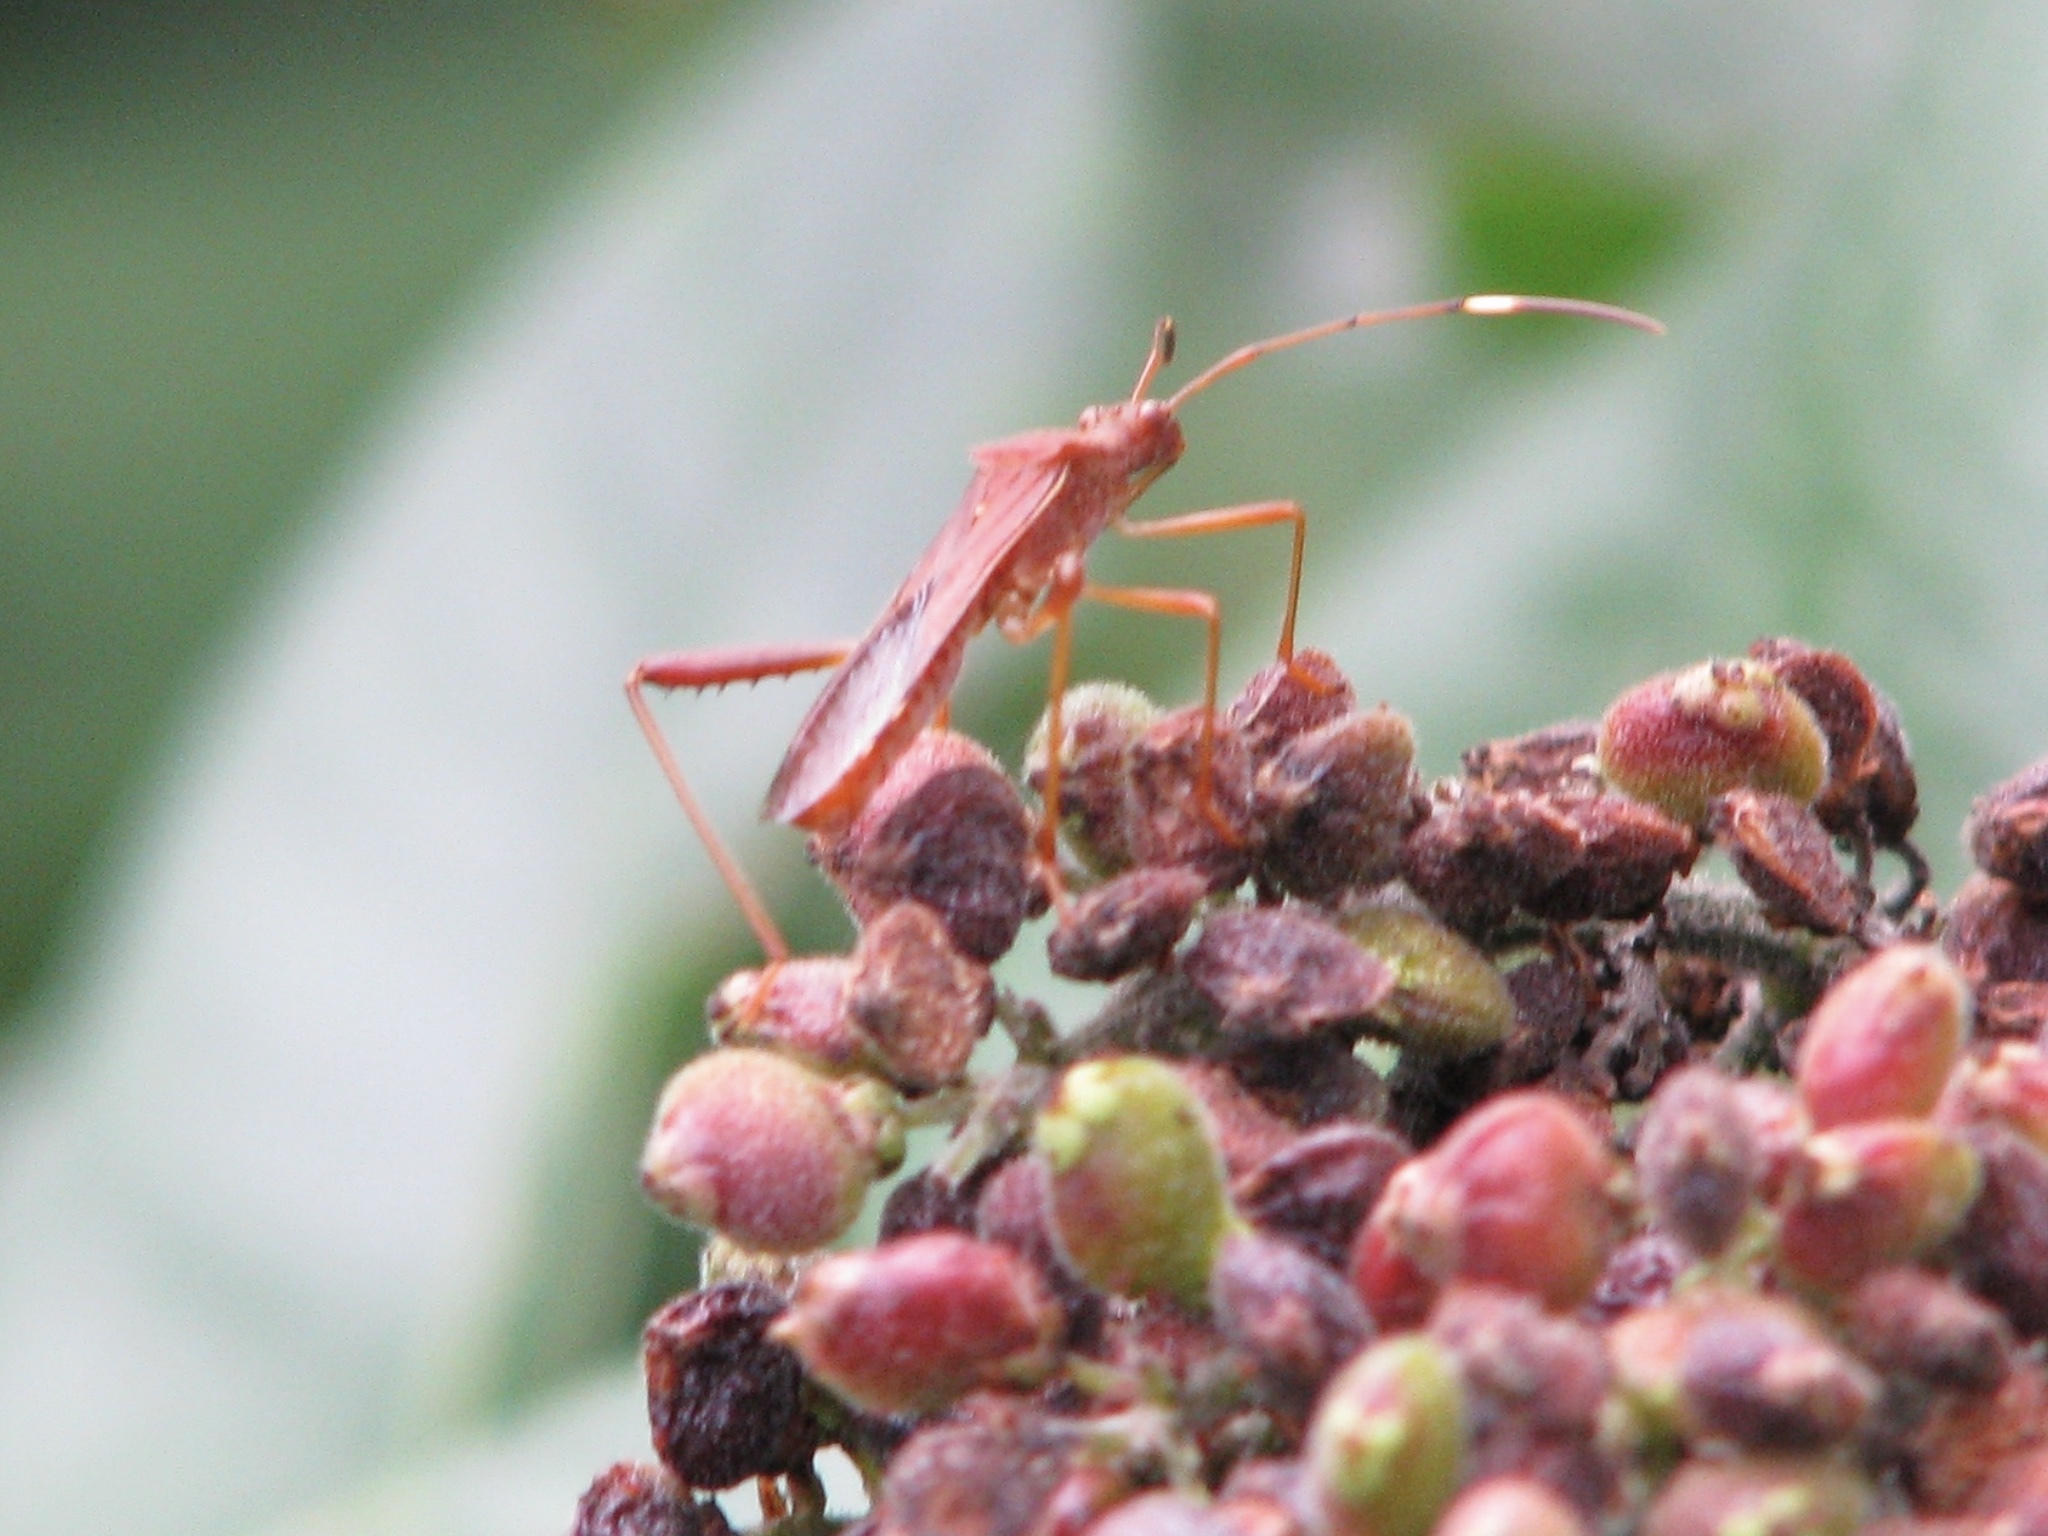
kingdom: Animalia
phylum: Arthropoda
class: Insecta
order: Hemiptera
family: Alydidae
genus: Megalotomus
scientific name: Megalotomus quinquespinosus
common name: Lupine bug
